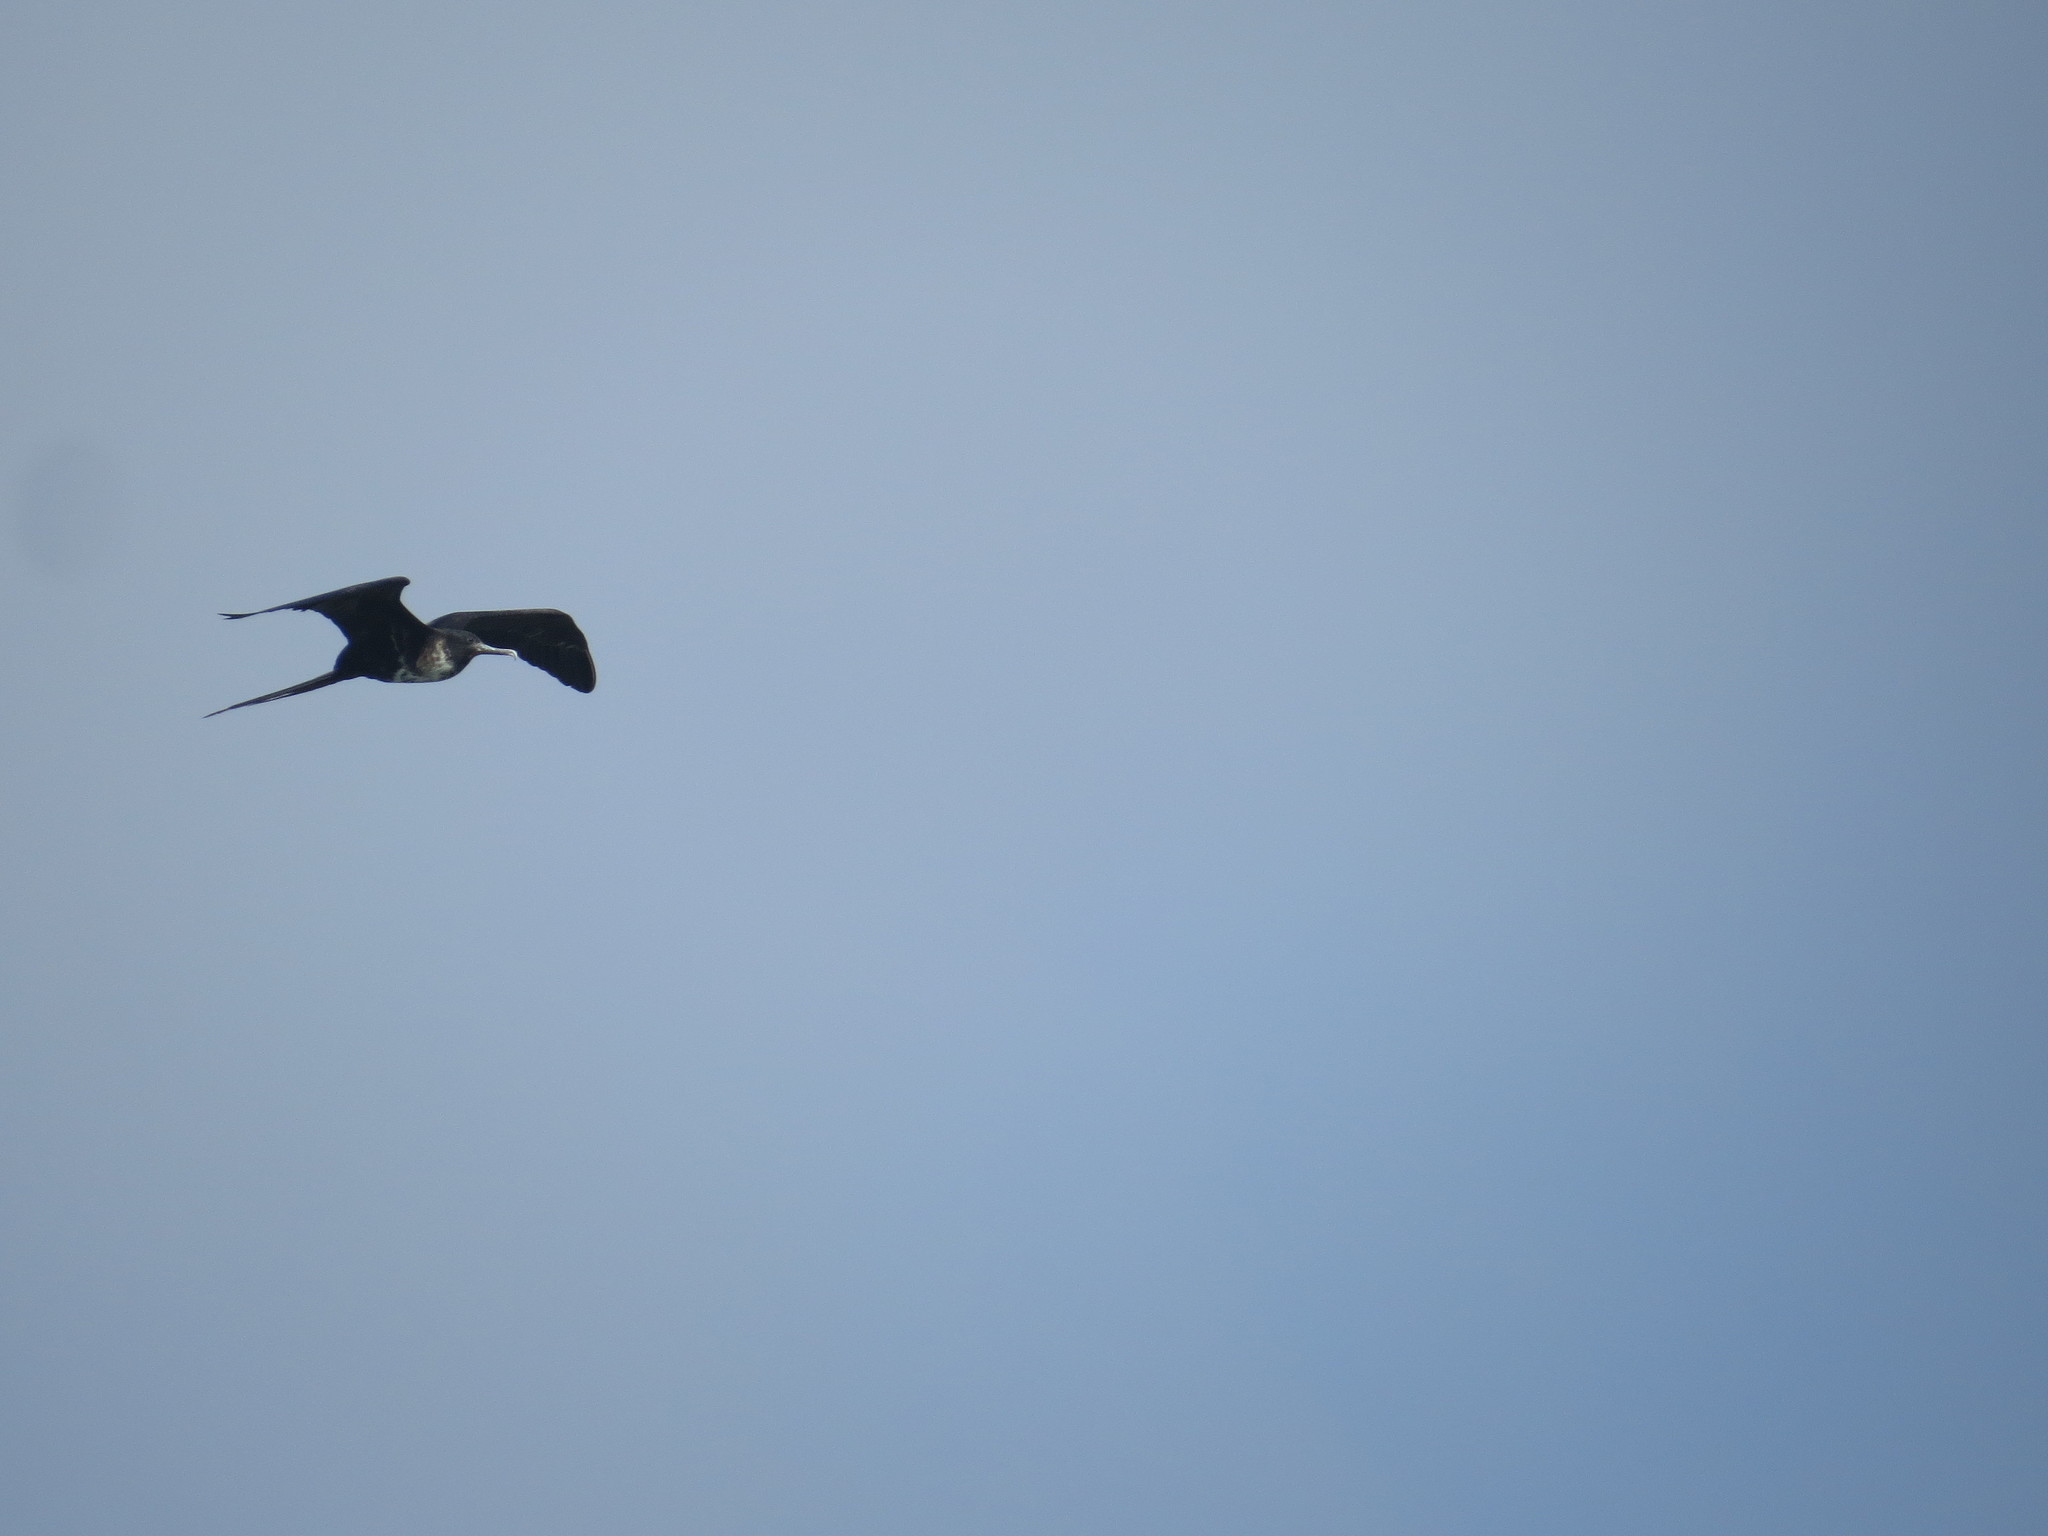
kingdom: Animalia
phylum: Chordata
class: Aves
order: Suliformes
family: Fregatidae
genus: Fregata
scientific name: Fregata magnificens
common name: Magnificent frigatebird
